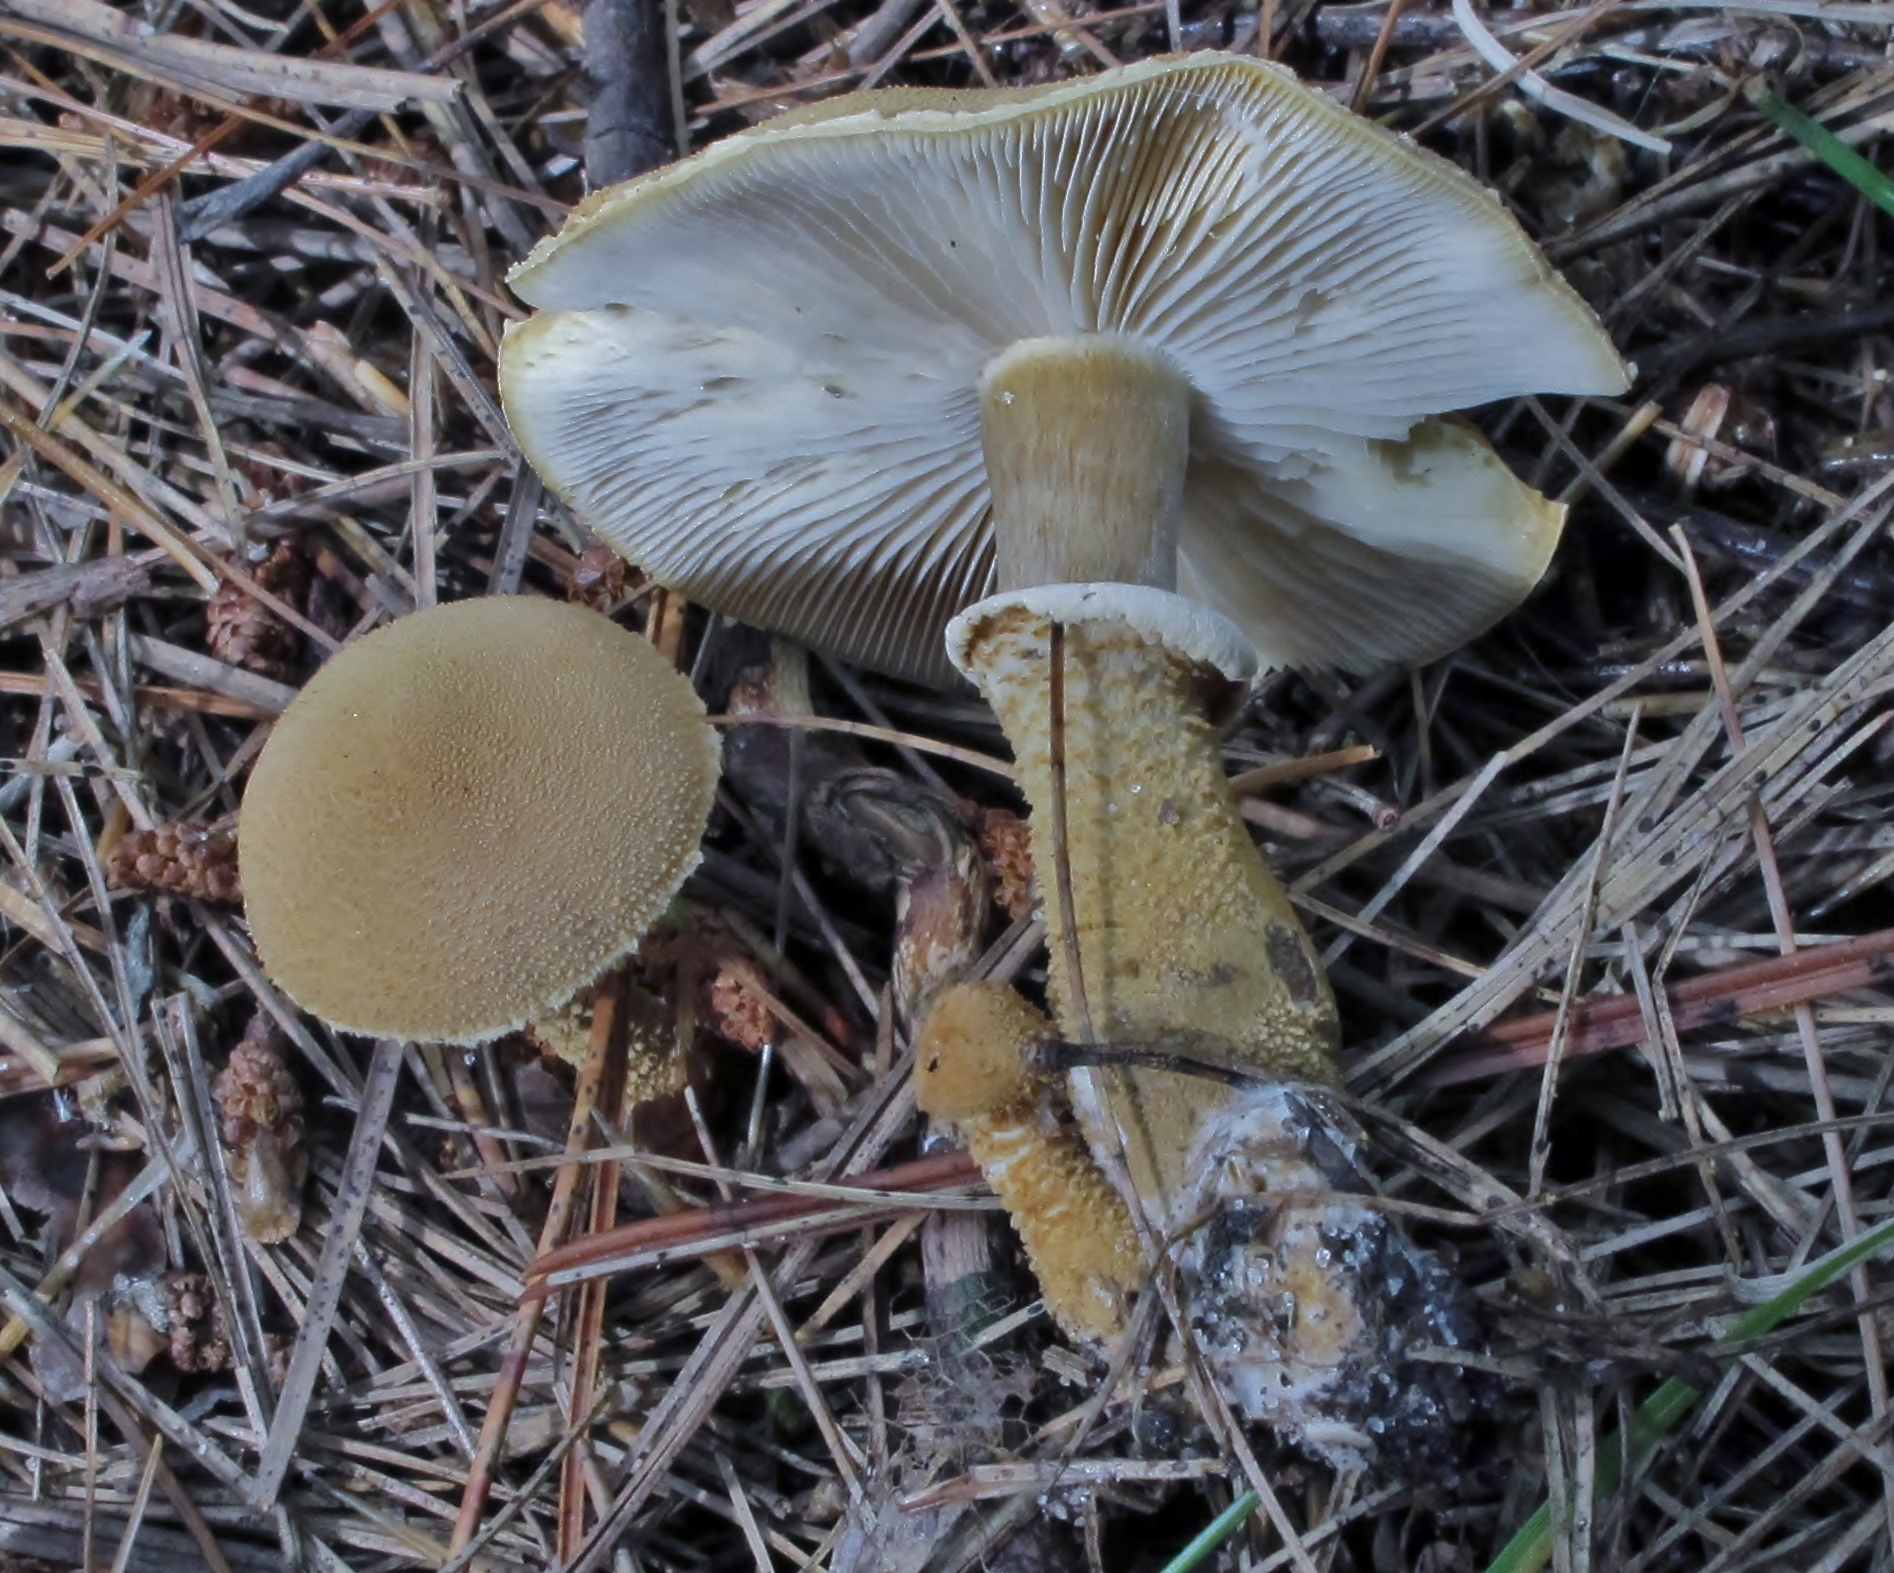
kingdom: Fungi
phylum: Basidiomycota
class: Agaricomycetes
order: Agaricales
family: Tricholomataceae
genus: Cystoderma
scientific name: Cystoderma amianthinum
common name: Earthy powdercap
